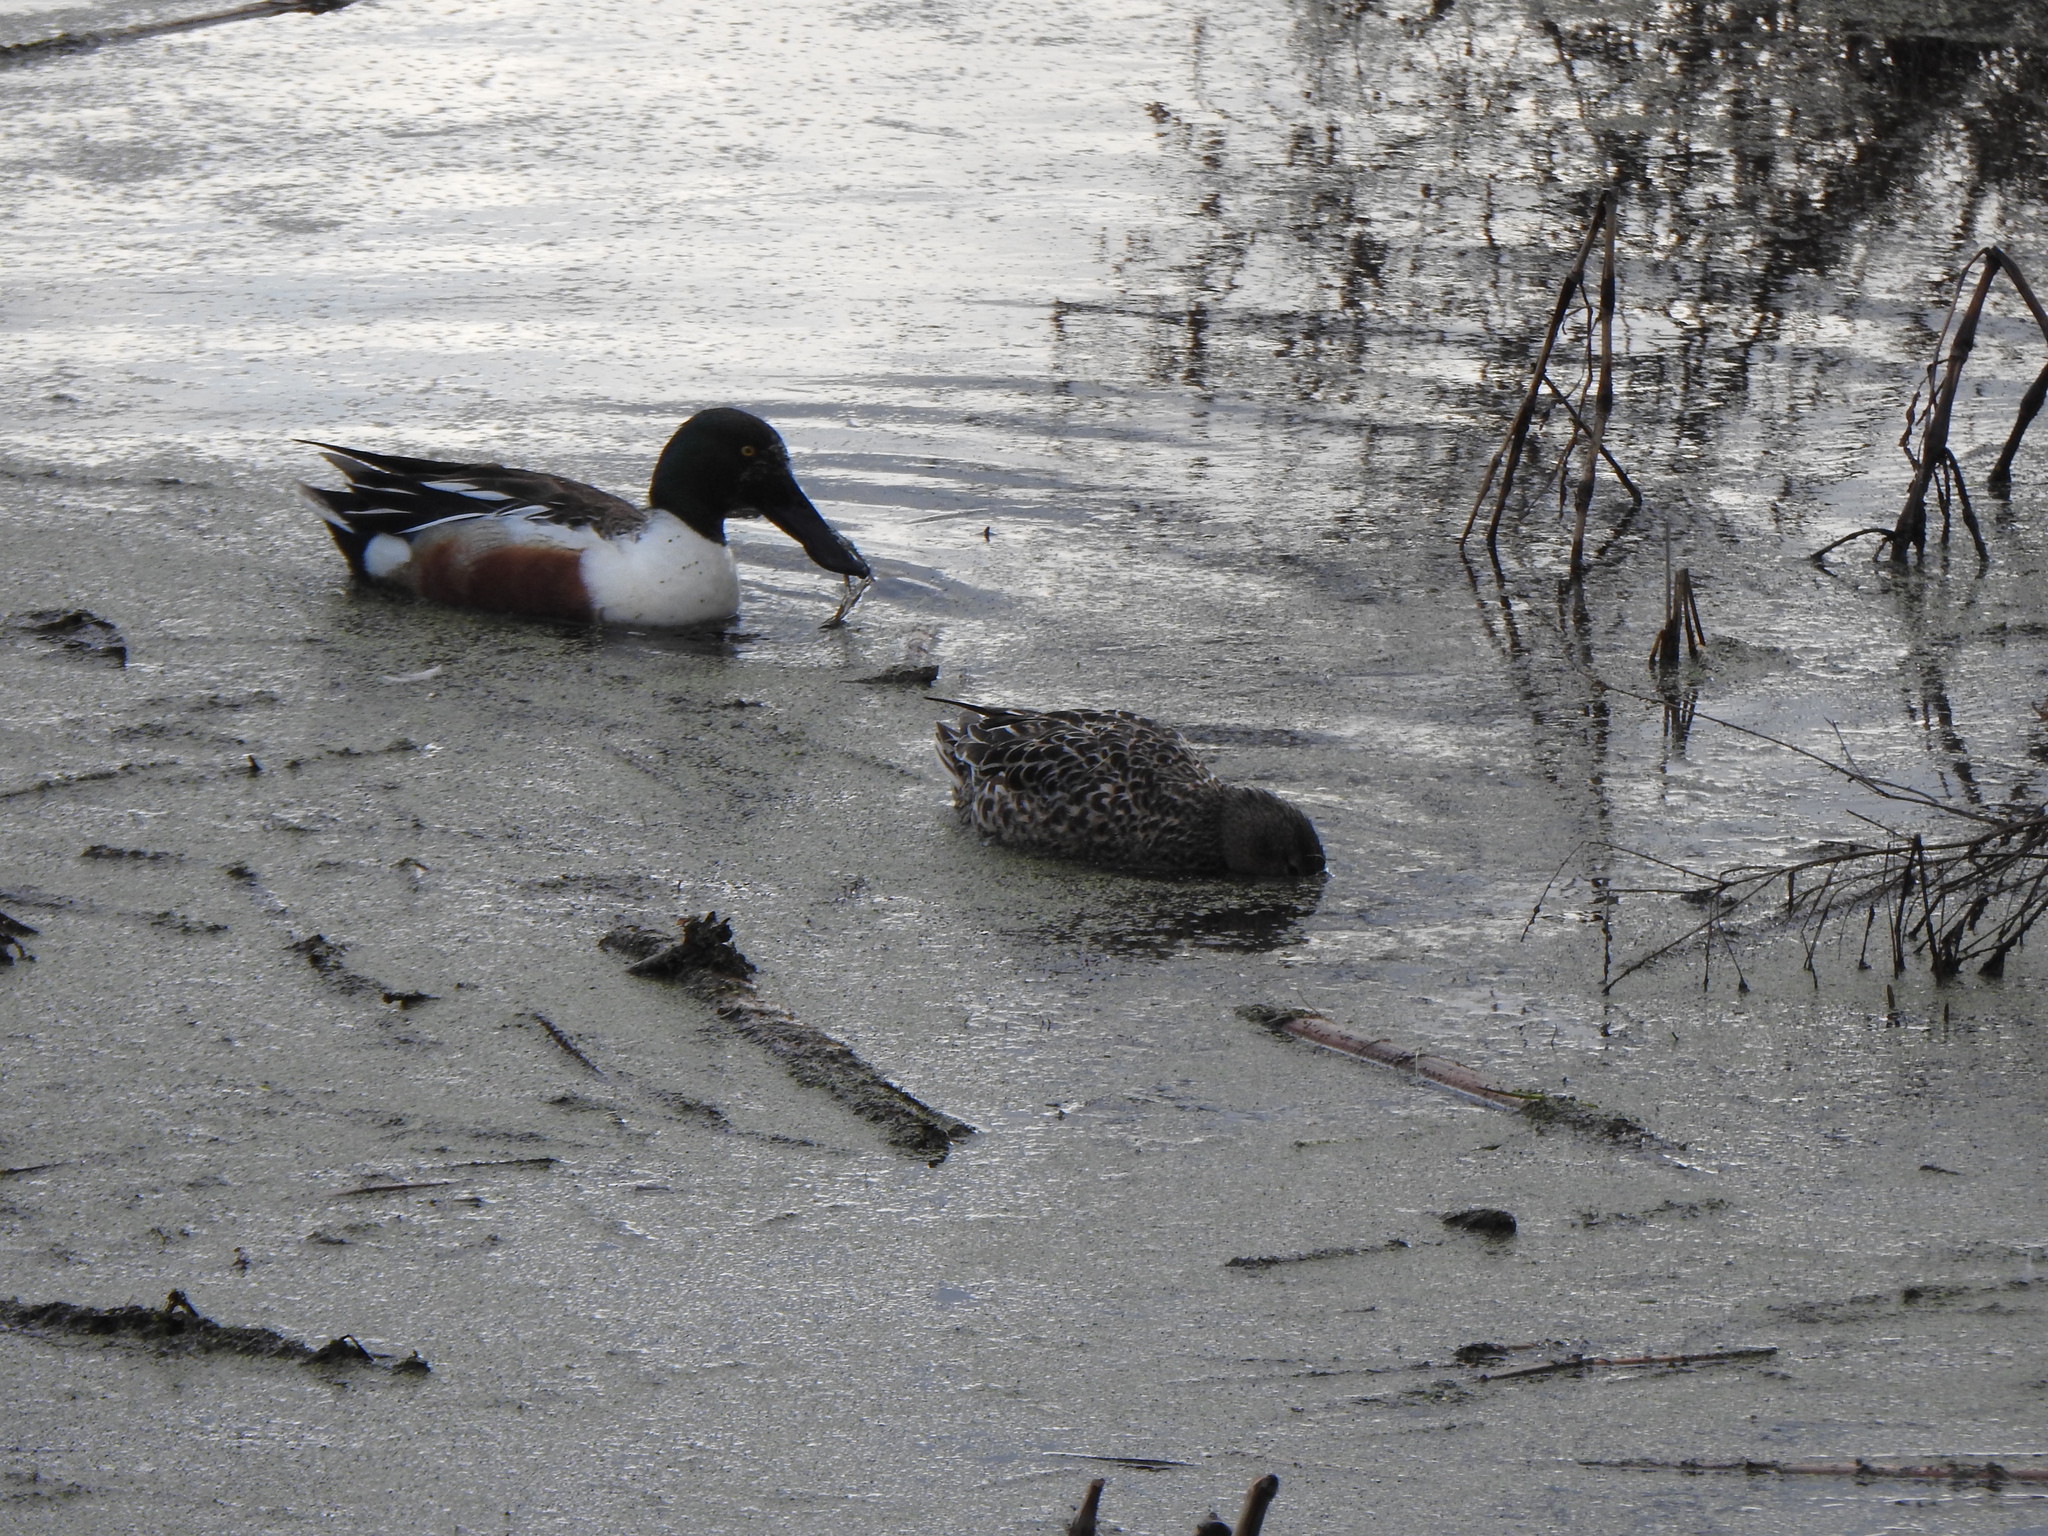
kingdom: Animalia
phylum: Chordata
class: Aves
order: Anseriformes
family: Anatidae
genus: Spatula
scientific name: Spatula clypeata
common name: Northern shoveler
